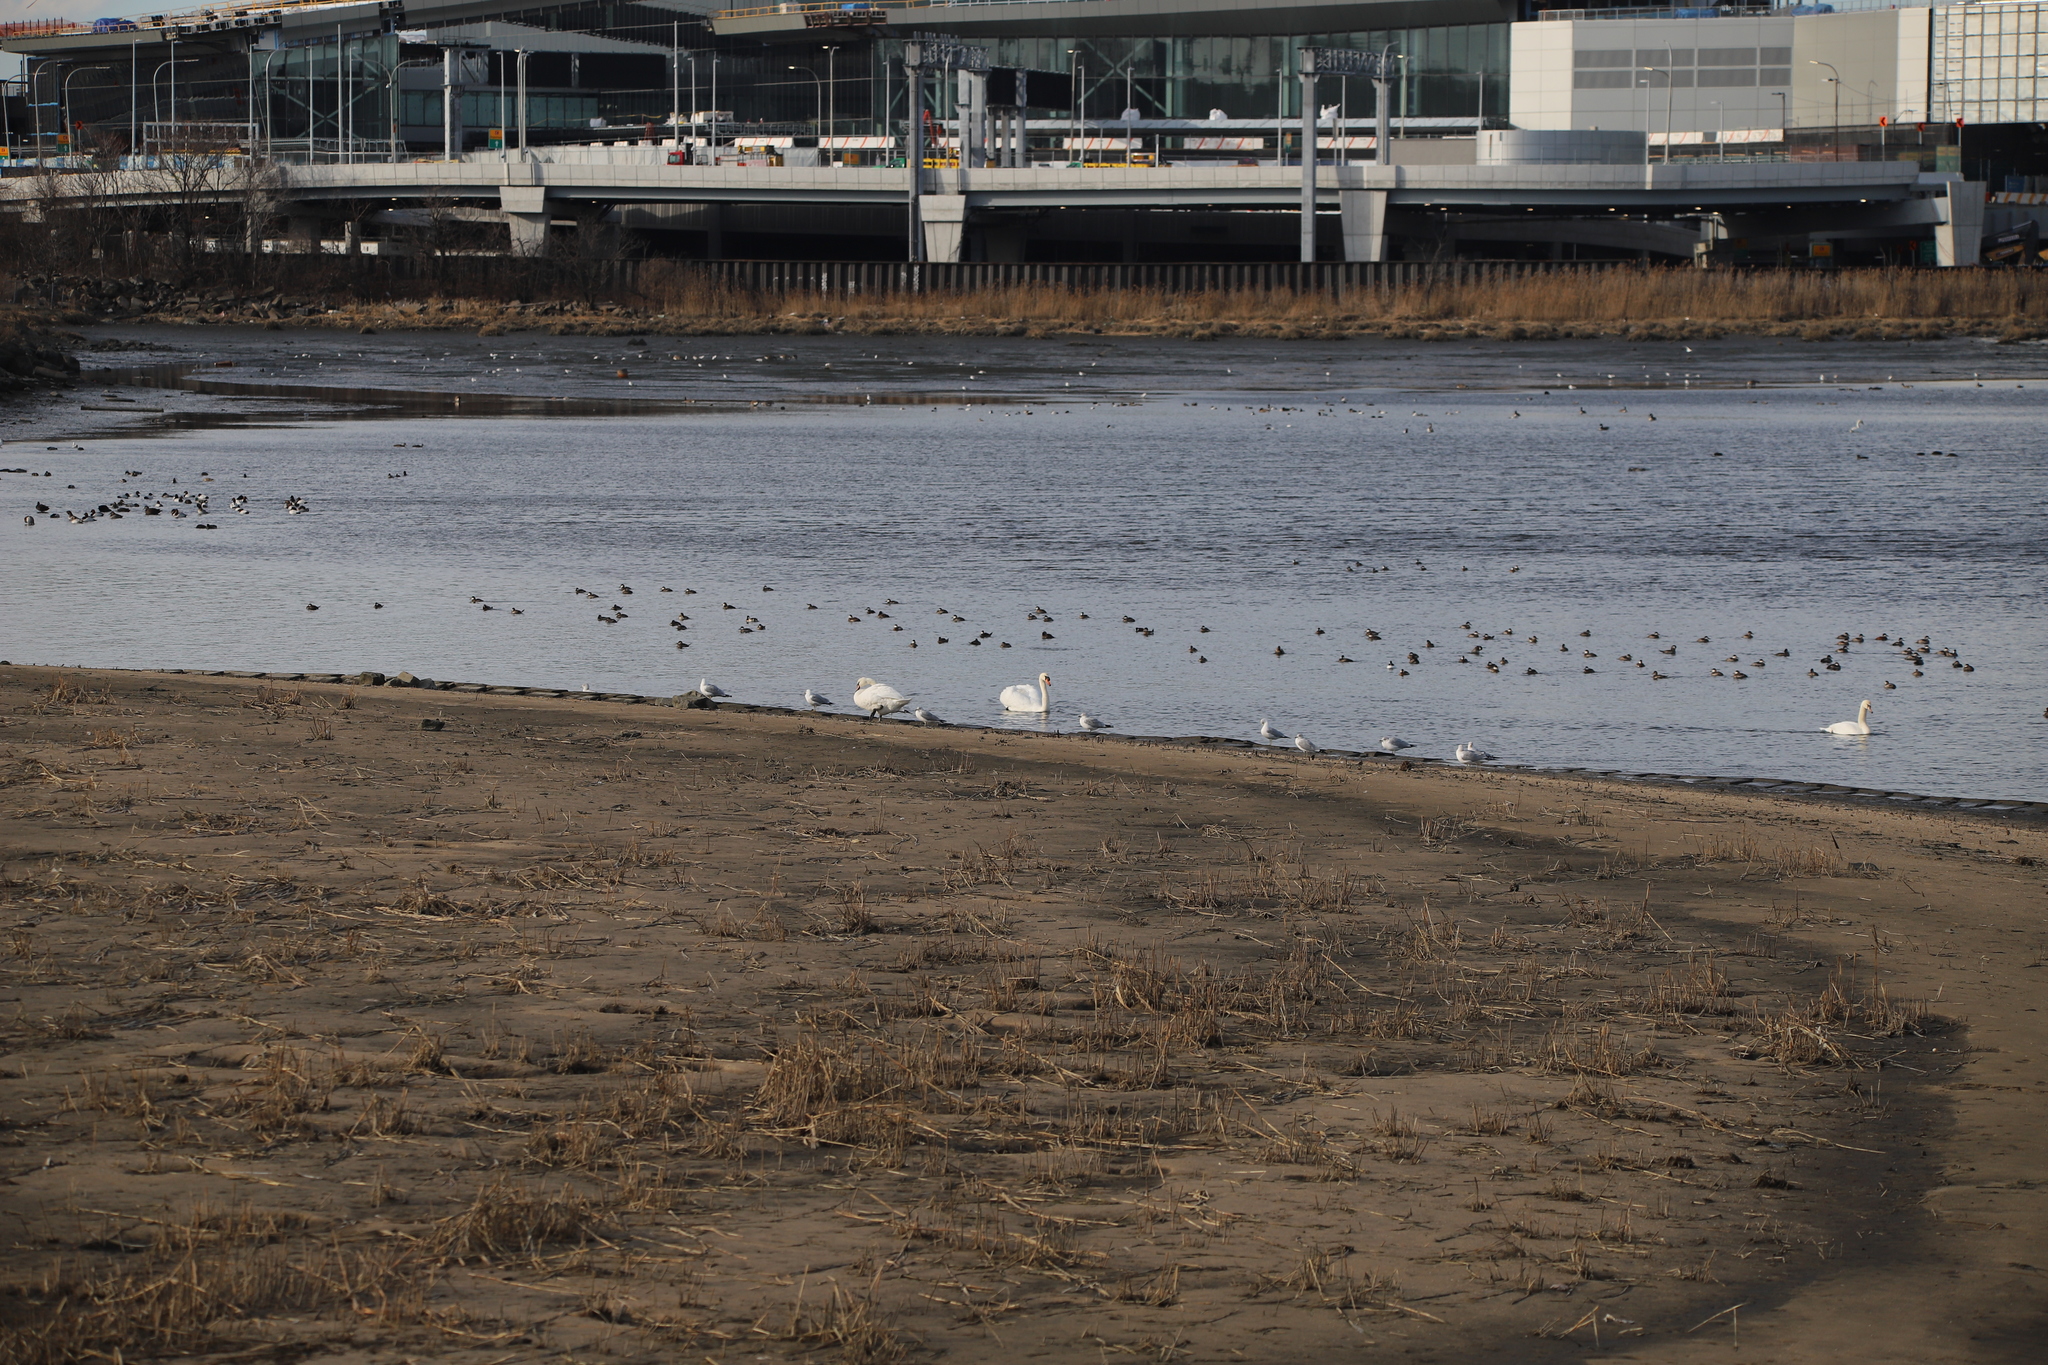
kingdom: Animalia
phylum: Chordata
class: Aves
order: Anseriformes
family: Anatidae
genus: Cygnus
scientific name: Cygnus olor
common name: Mute swan
